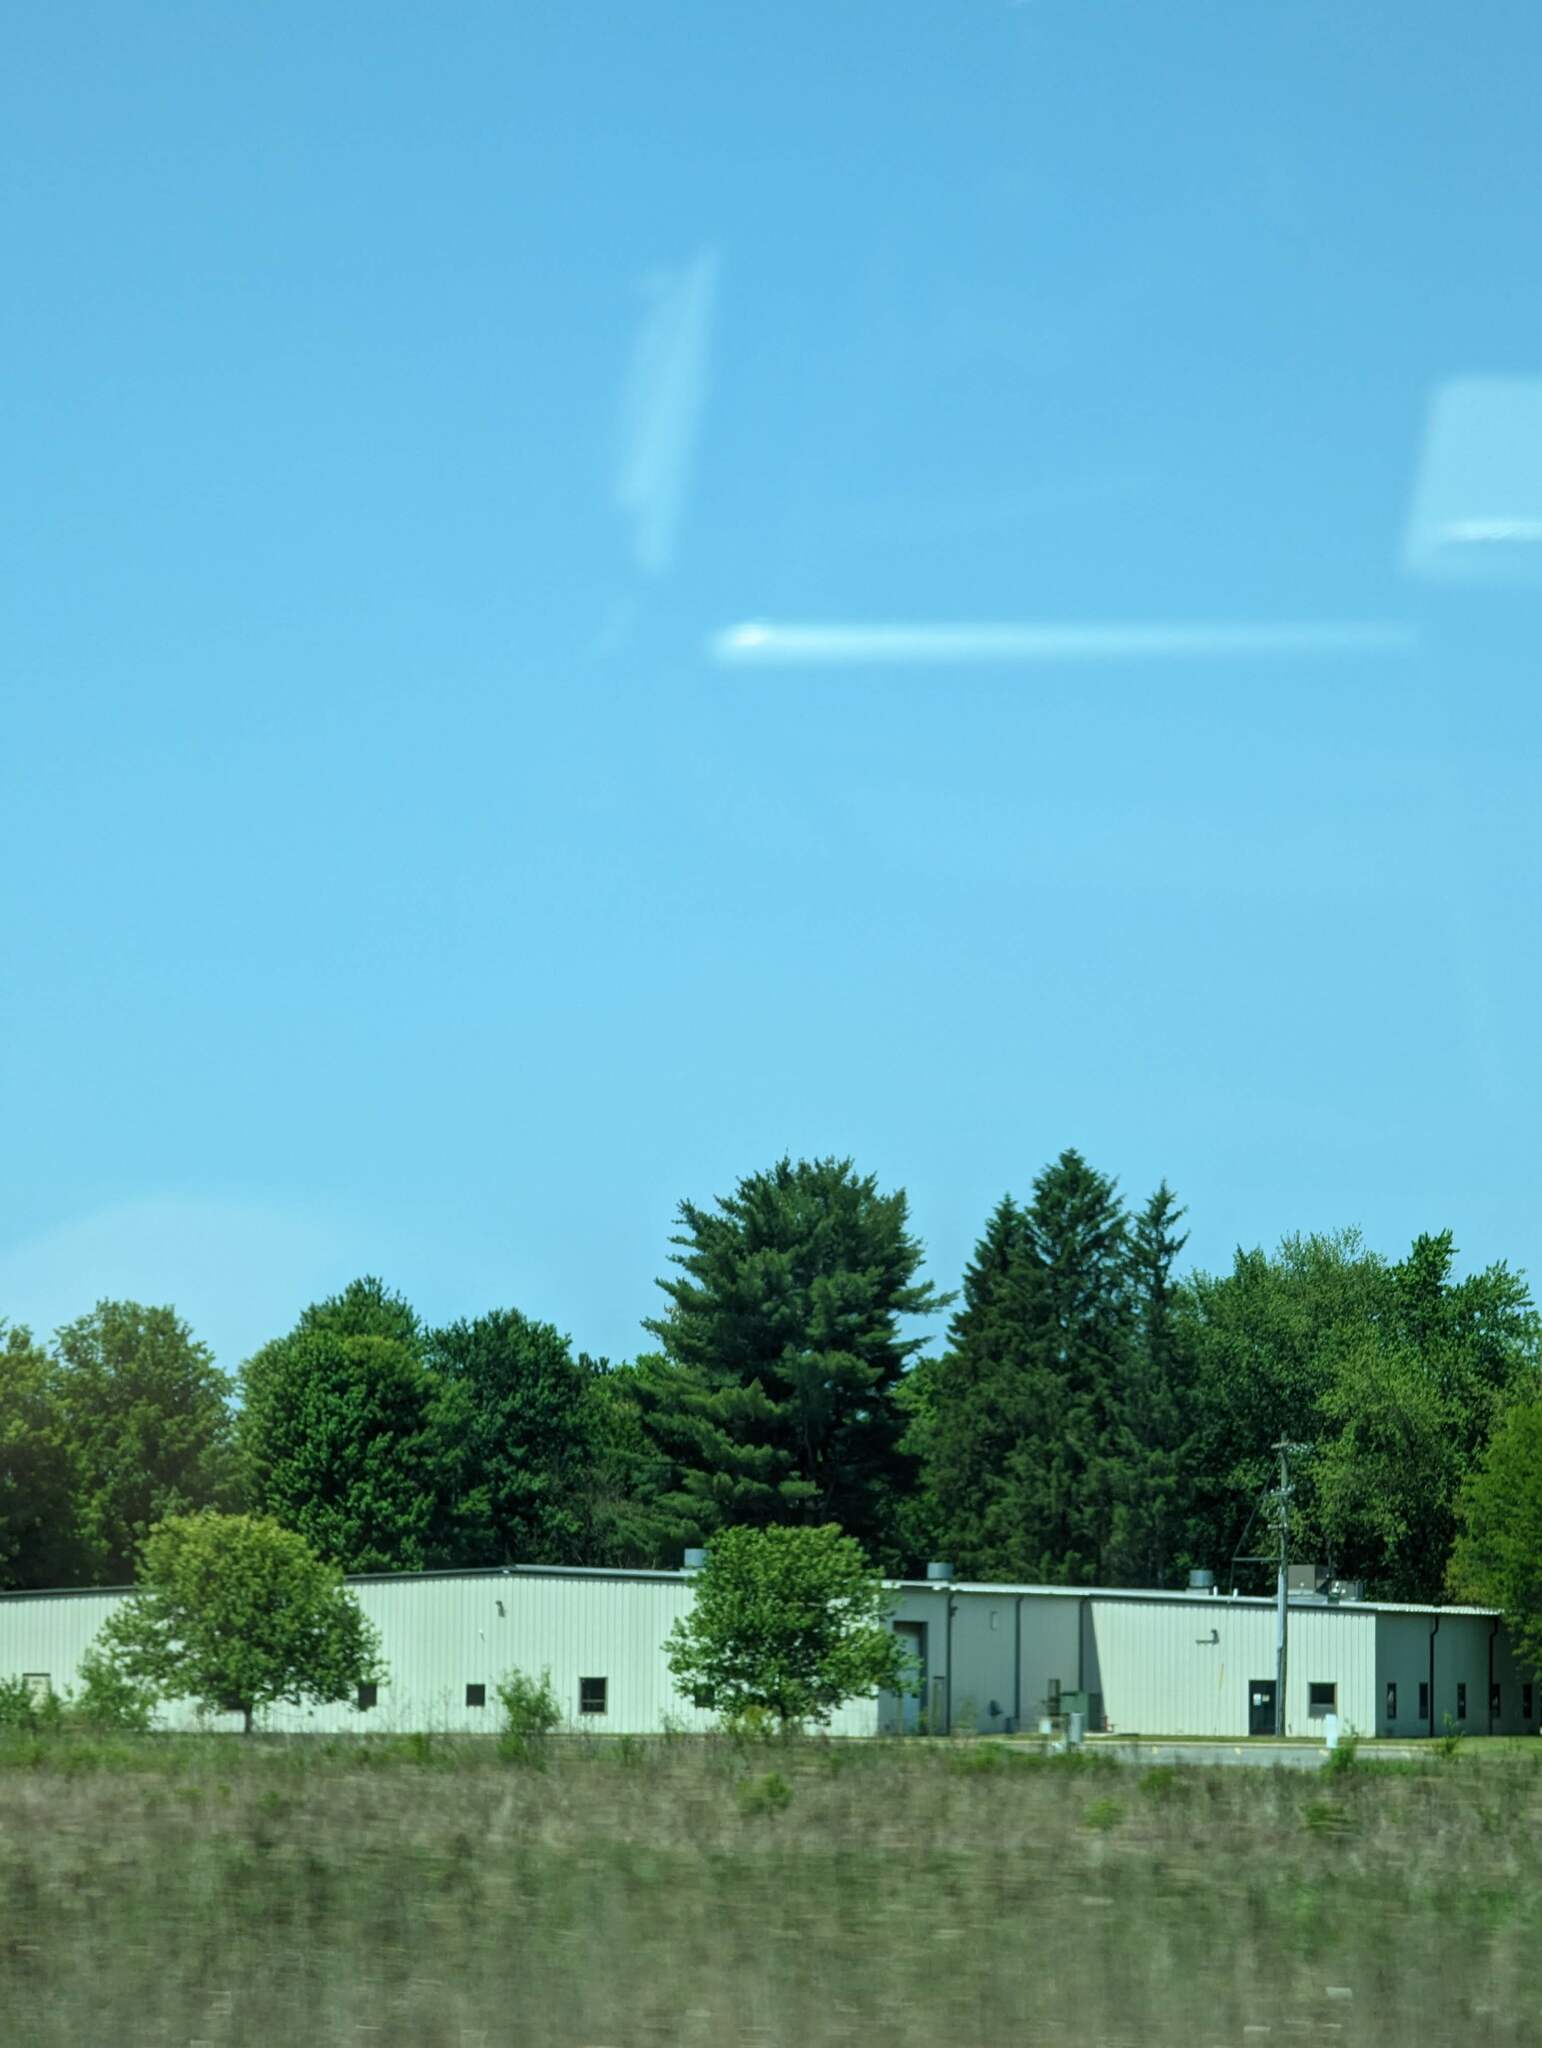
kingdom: Plantae
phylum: Tracheophyta
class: Pinopsida
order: Pinales
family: Pinaceae
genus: Pinus
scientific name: Pinus strobus
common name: Weymouth pine
